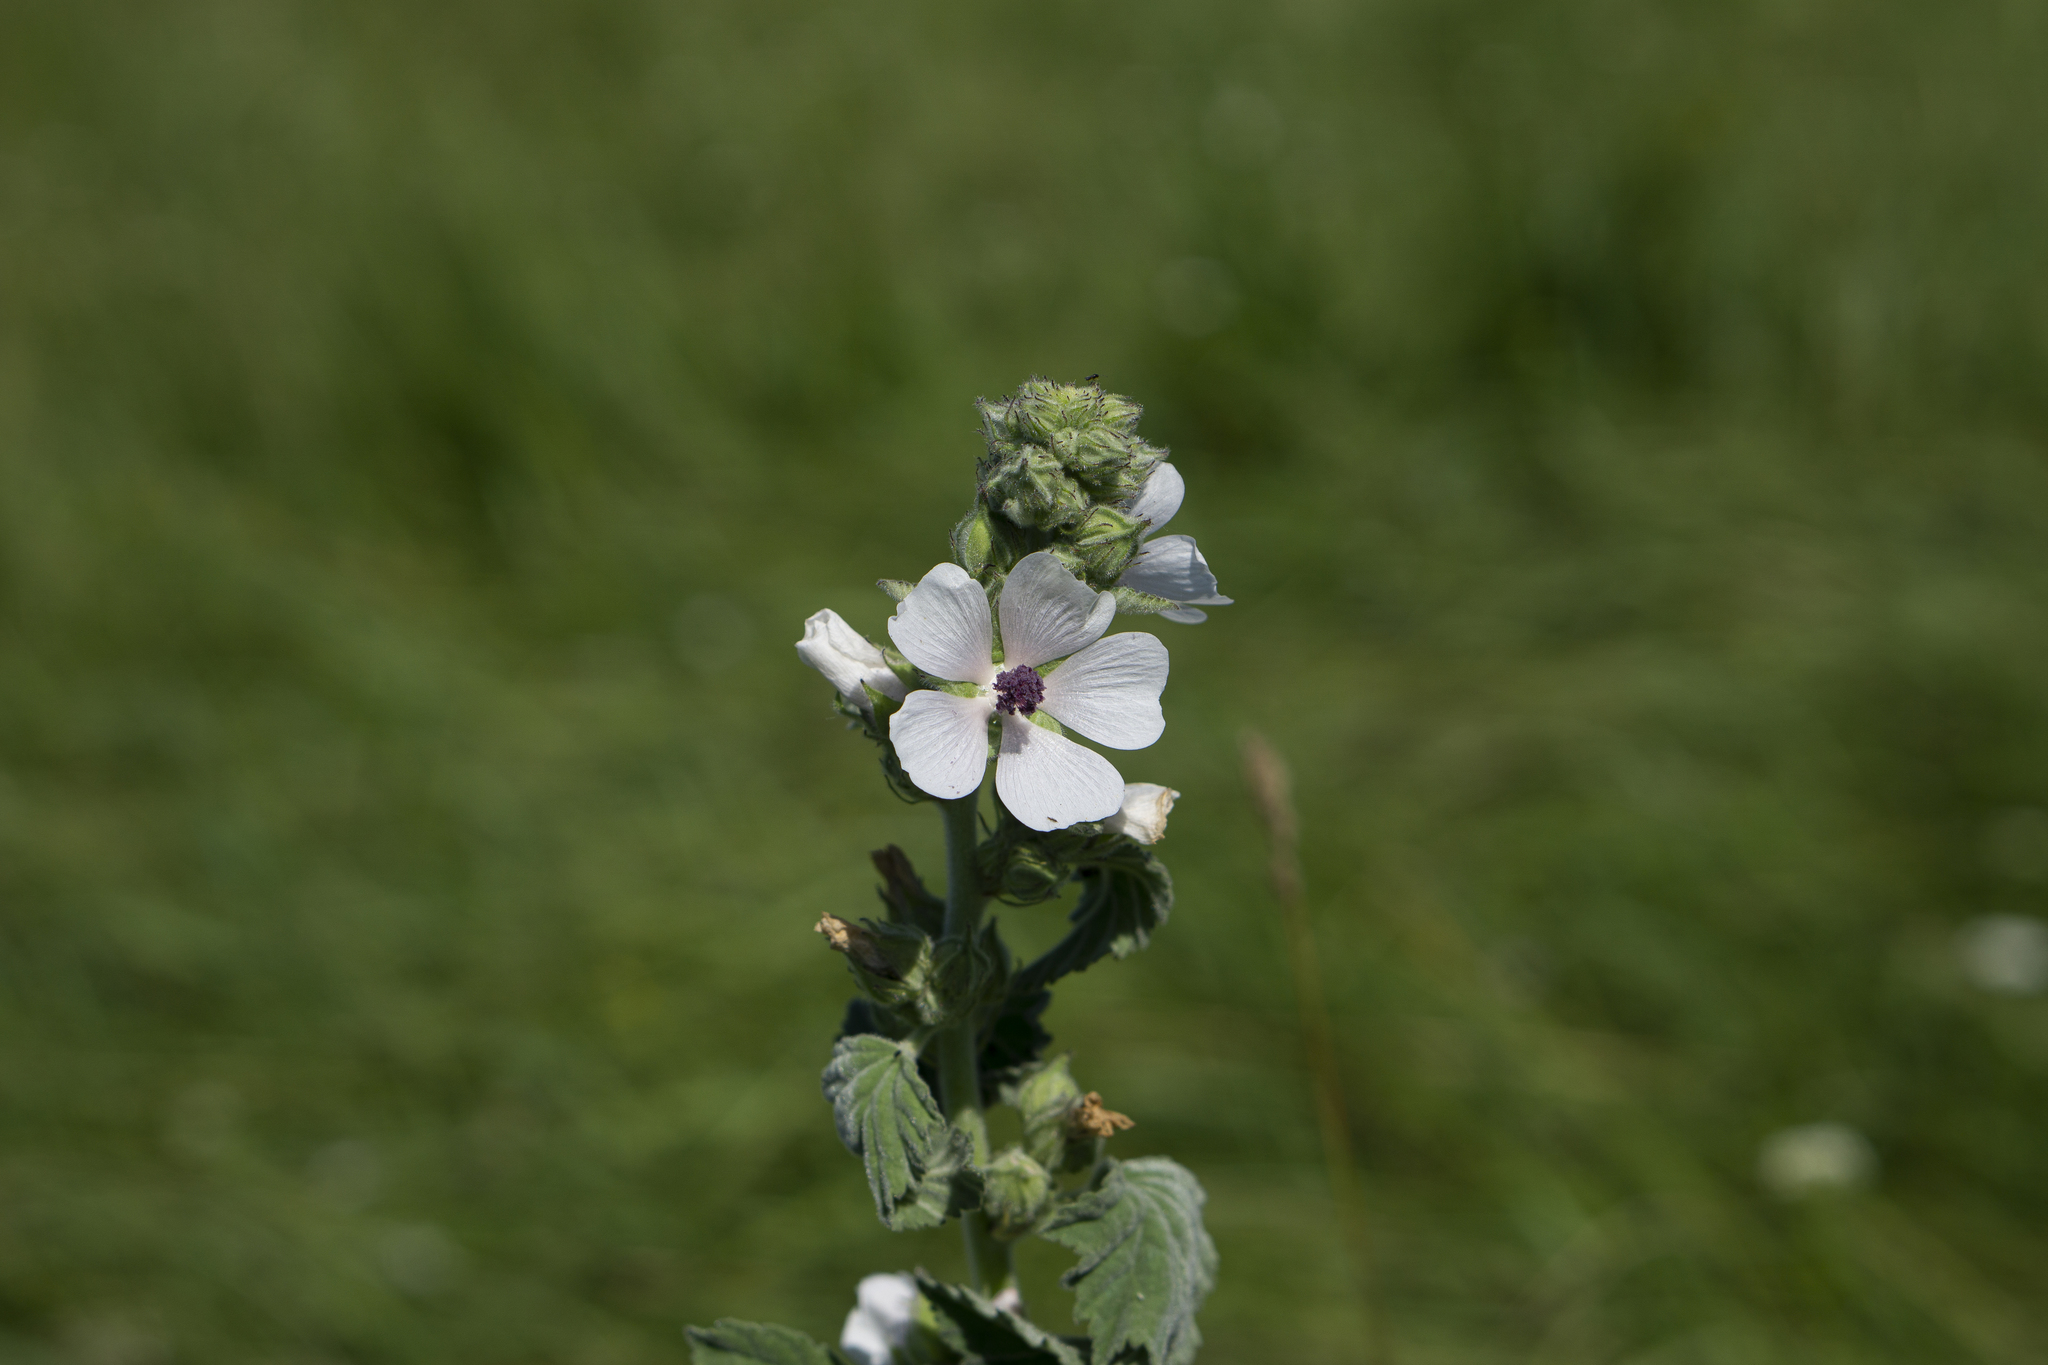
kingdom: Plantae
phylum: Tracheophyta
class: Magnoliopsida
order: Malvales
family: Malvaceae
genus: Althaea
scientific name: Althaea officinalis
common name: Marsh-mallow
